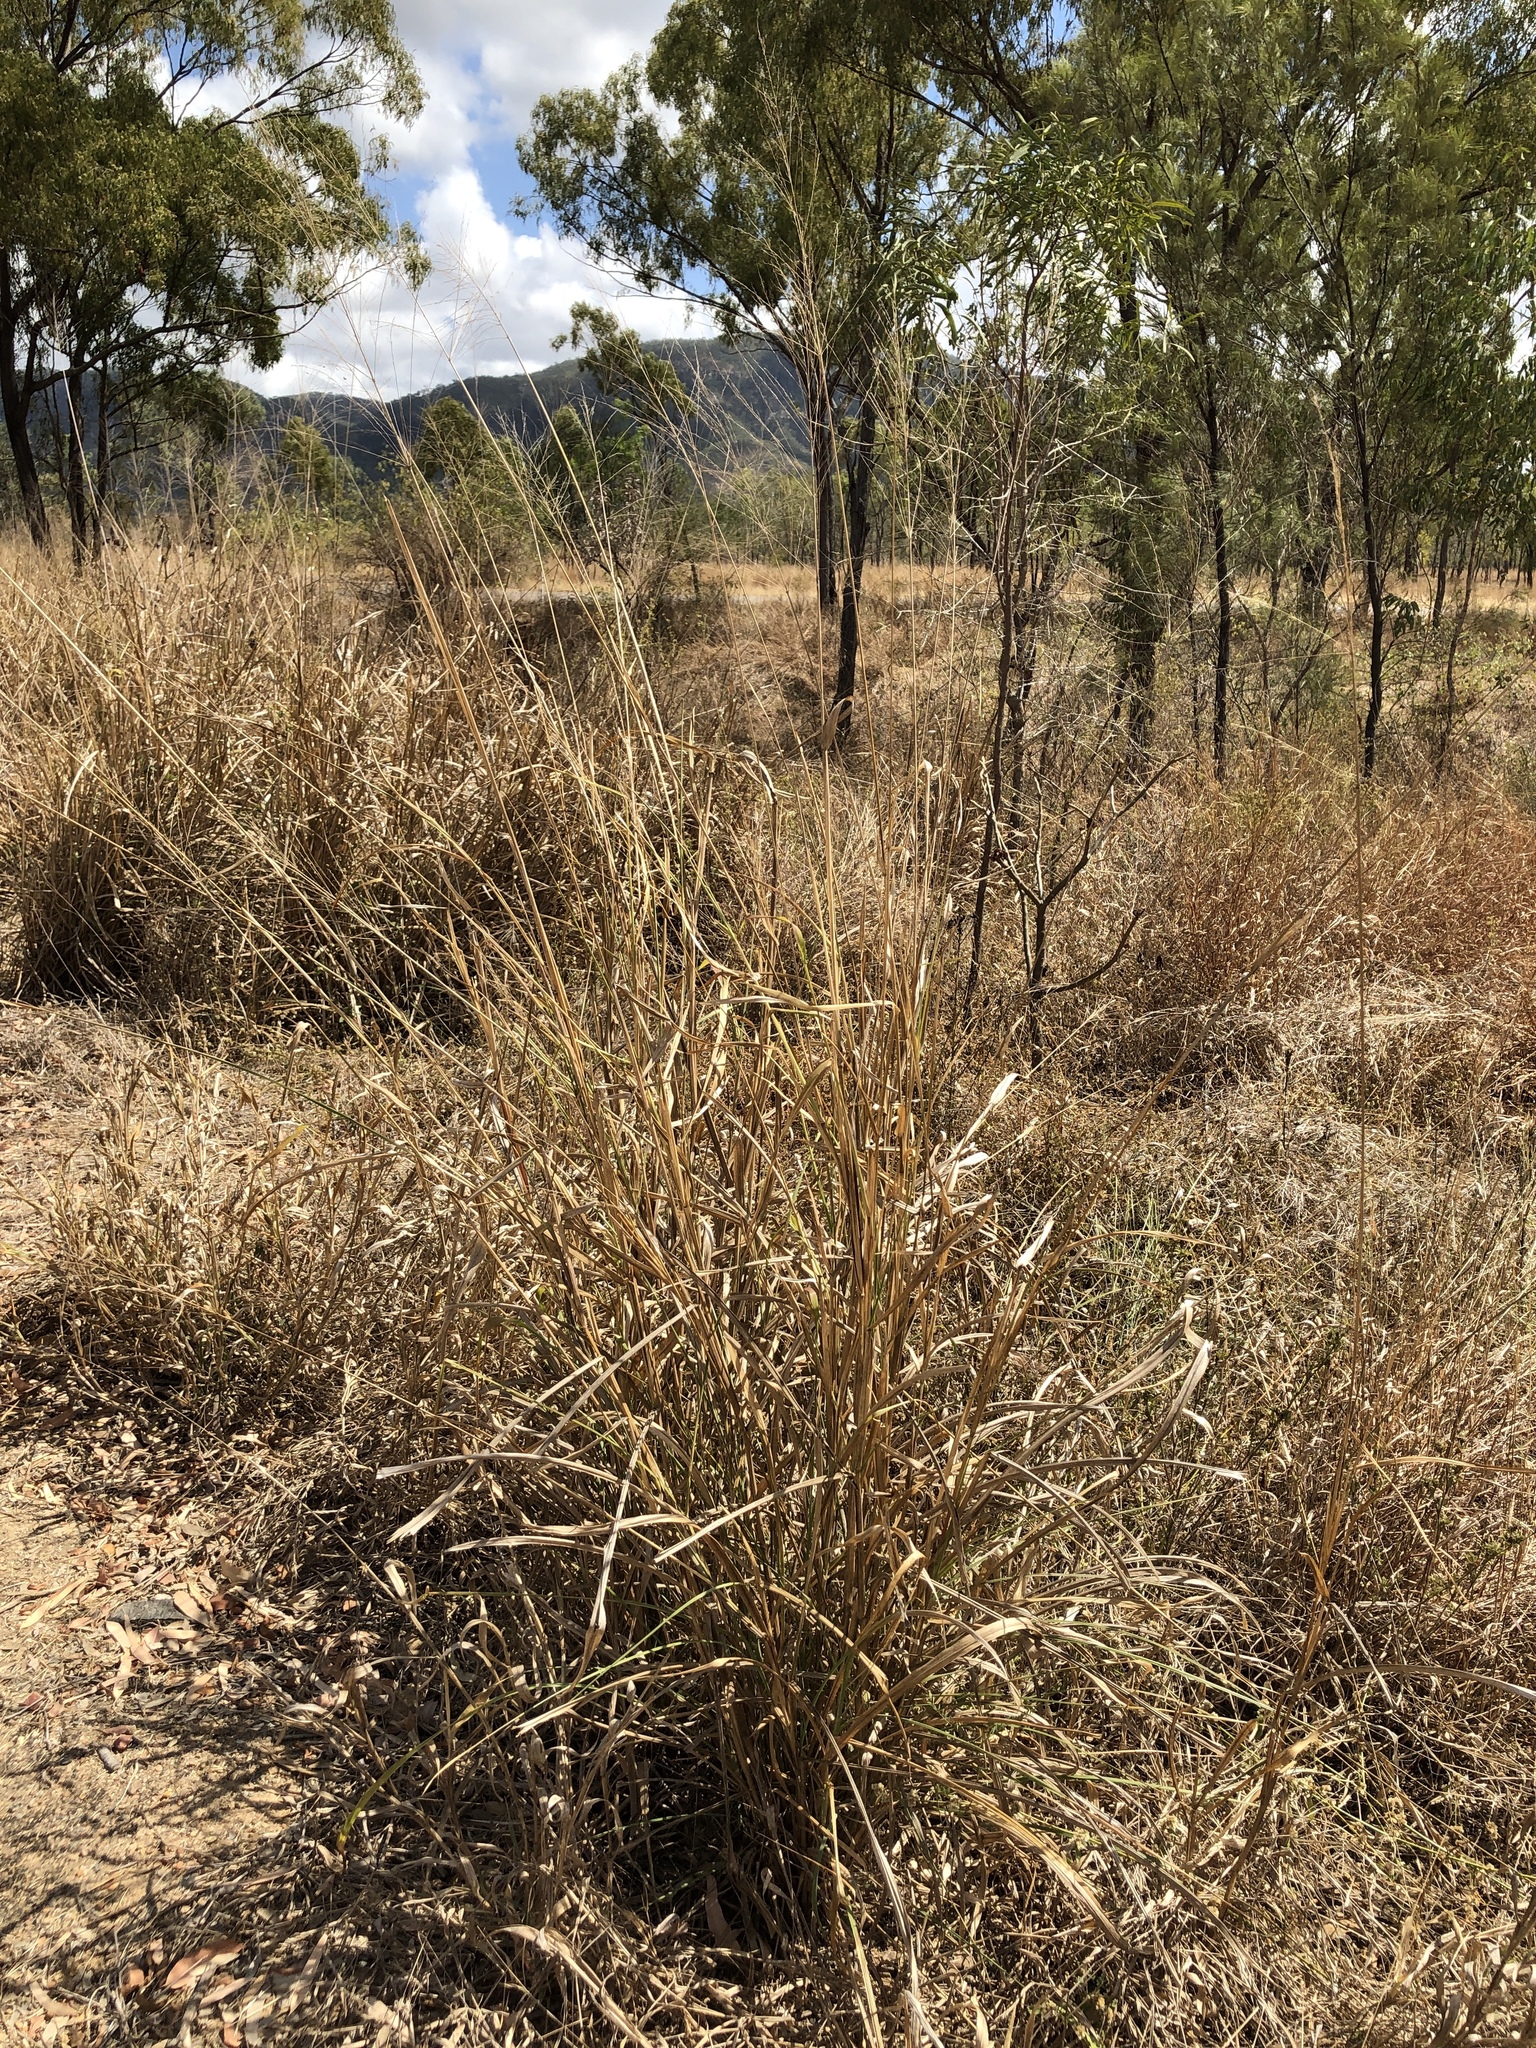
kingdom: Plantae
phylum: Tracheophyta
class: Liliopsida
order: Poales
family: Poaceae
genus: Megathyrsus
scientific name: Megathyrsus maximus
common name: Guineagrass
